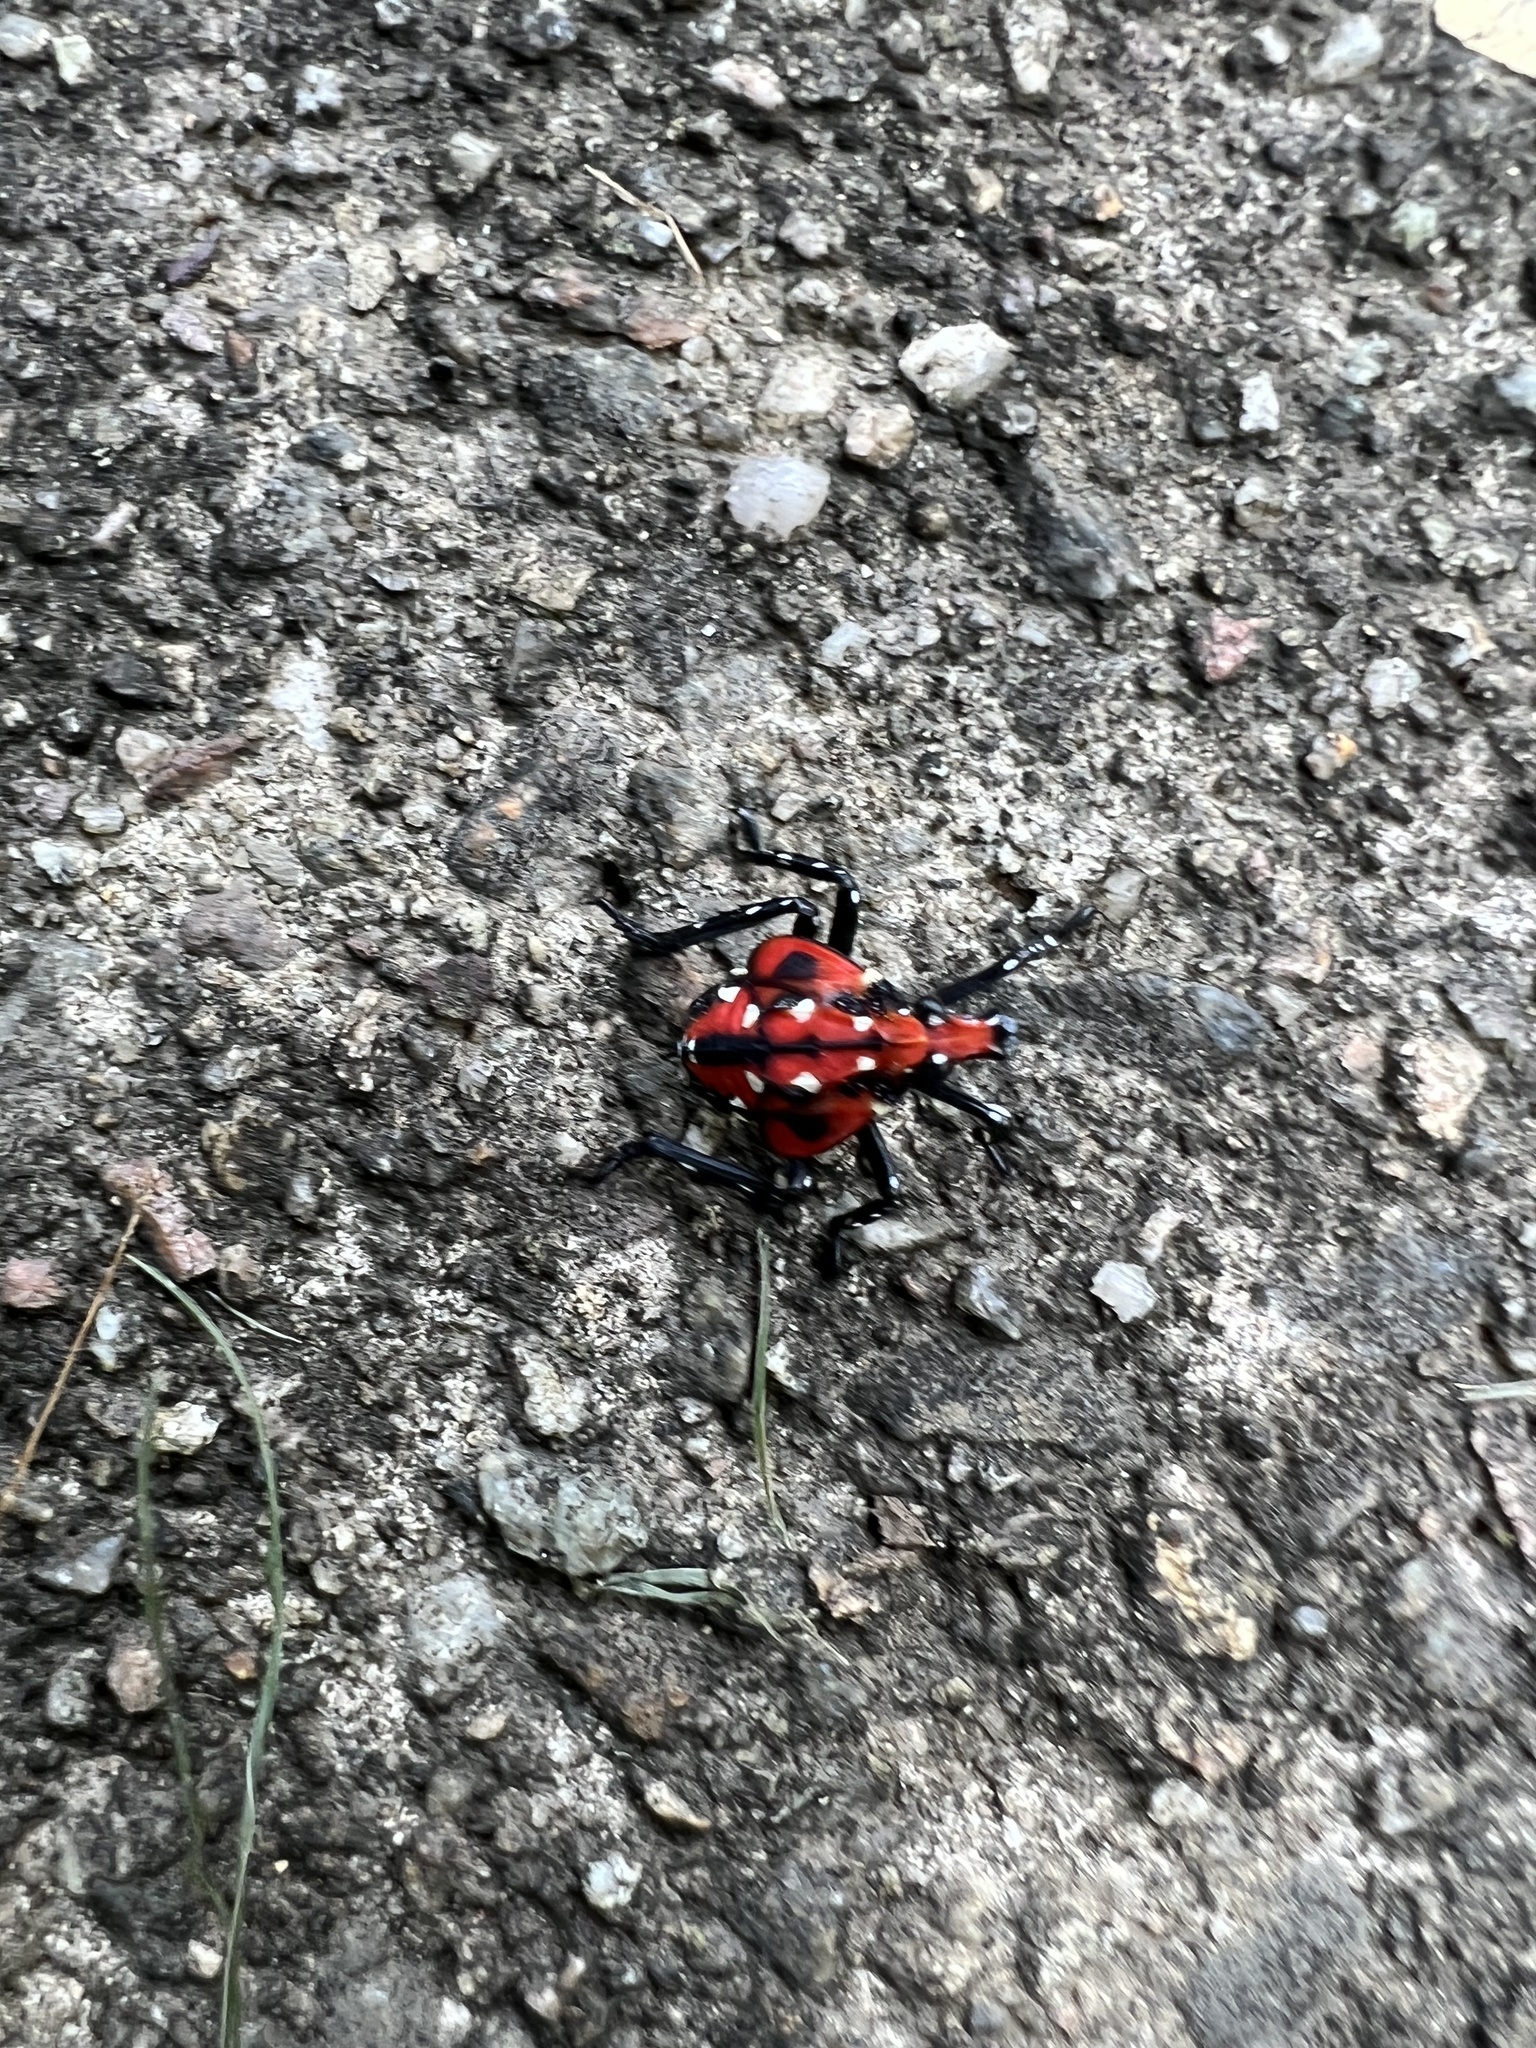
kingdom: Animalia
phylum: Arthropoda
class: Insecta
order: Hemiptera
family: Fulgoridae
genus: Lycorma
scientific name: Lycorma delicatula
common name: Spotted lanternfly
